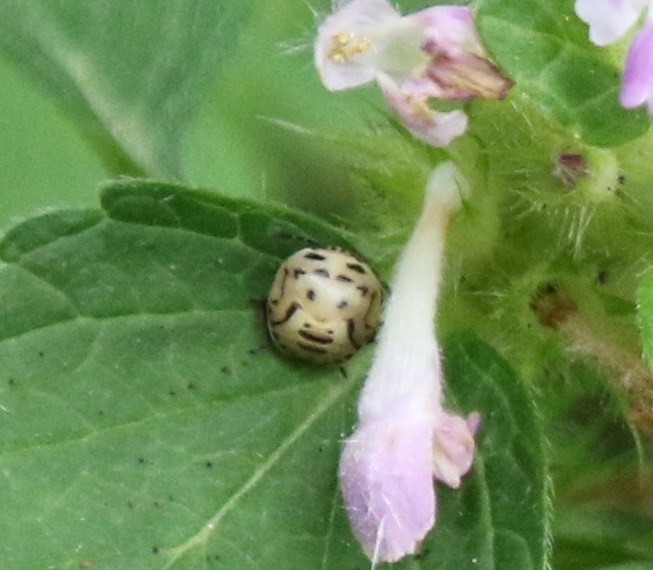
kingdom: Animalia
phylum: Arthropoda
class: Insecta
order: Hemiptera
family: Pentatomidae
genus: Cosmopepla
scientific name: Cosmopepla lintneriana
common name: Twice-stabbed stink bug
